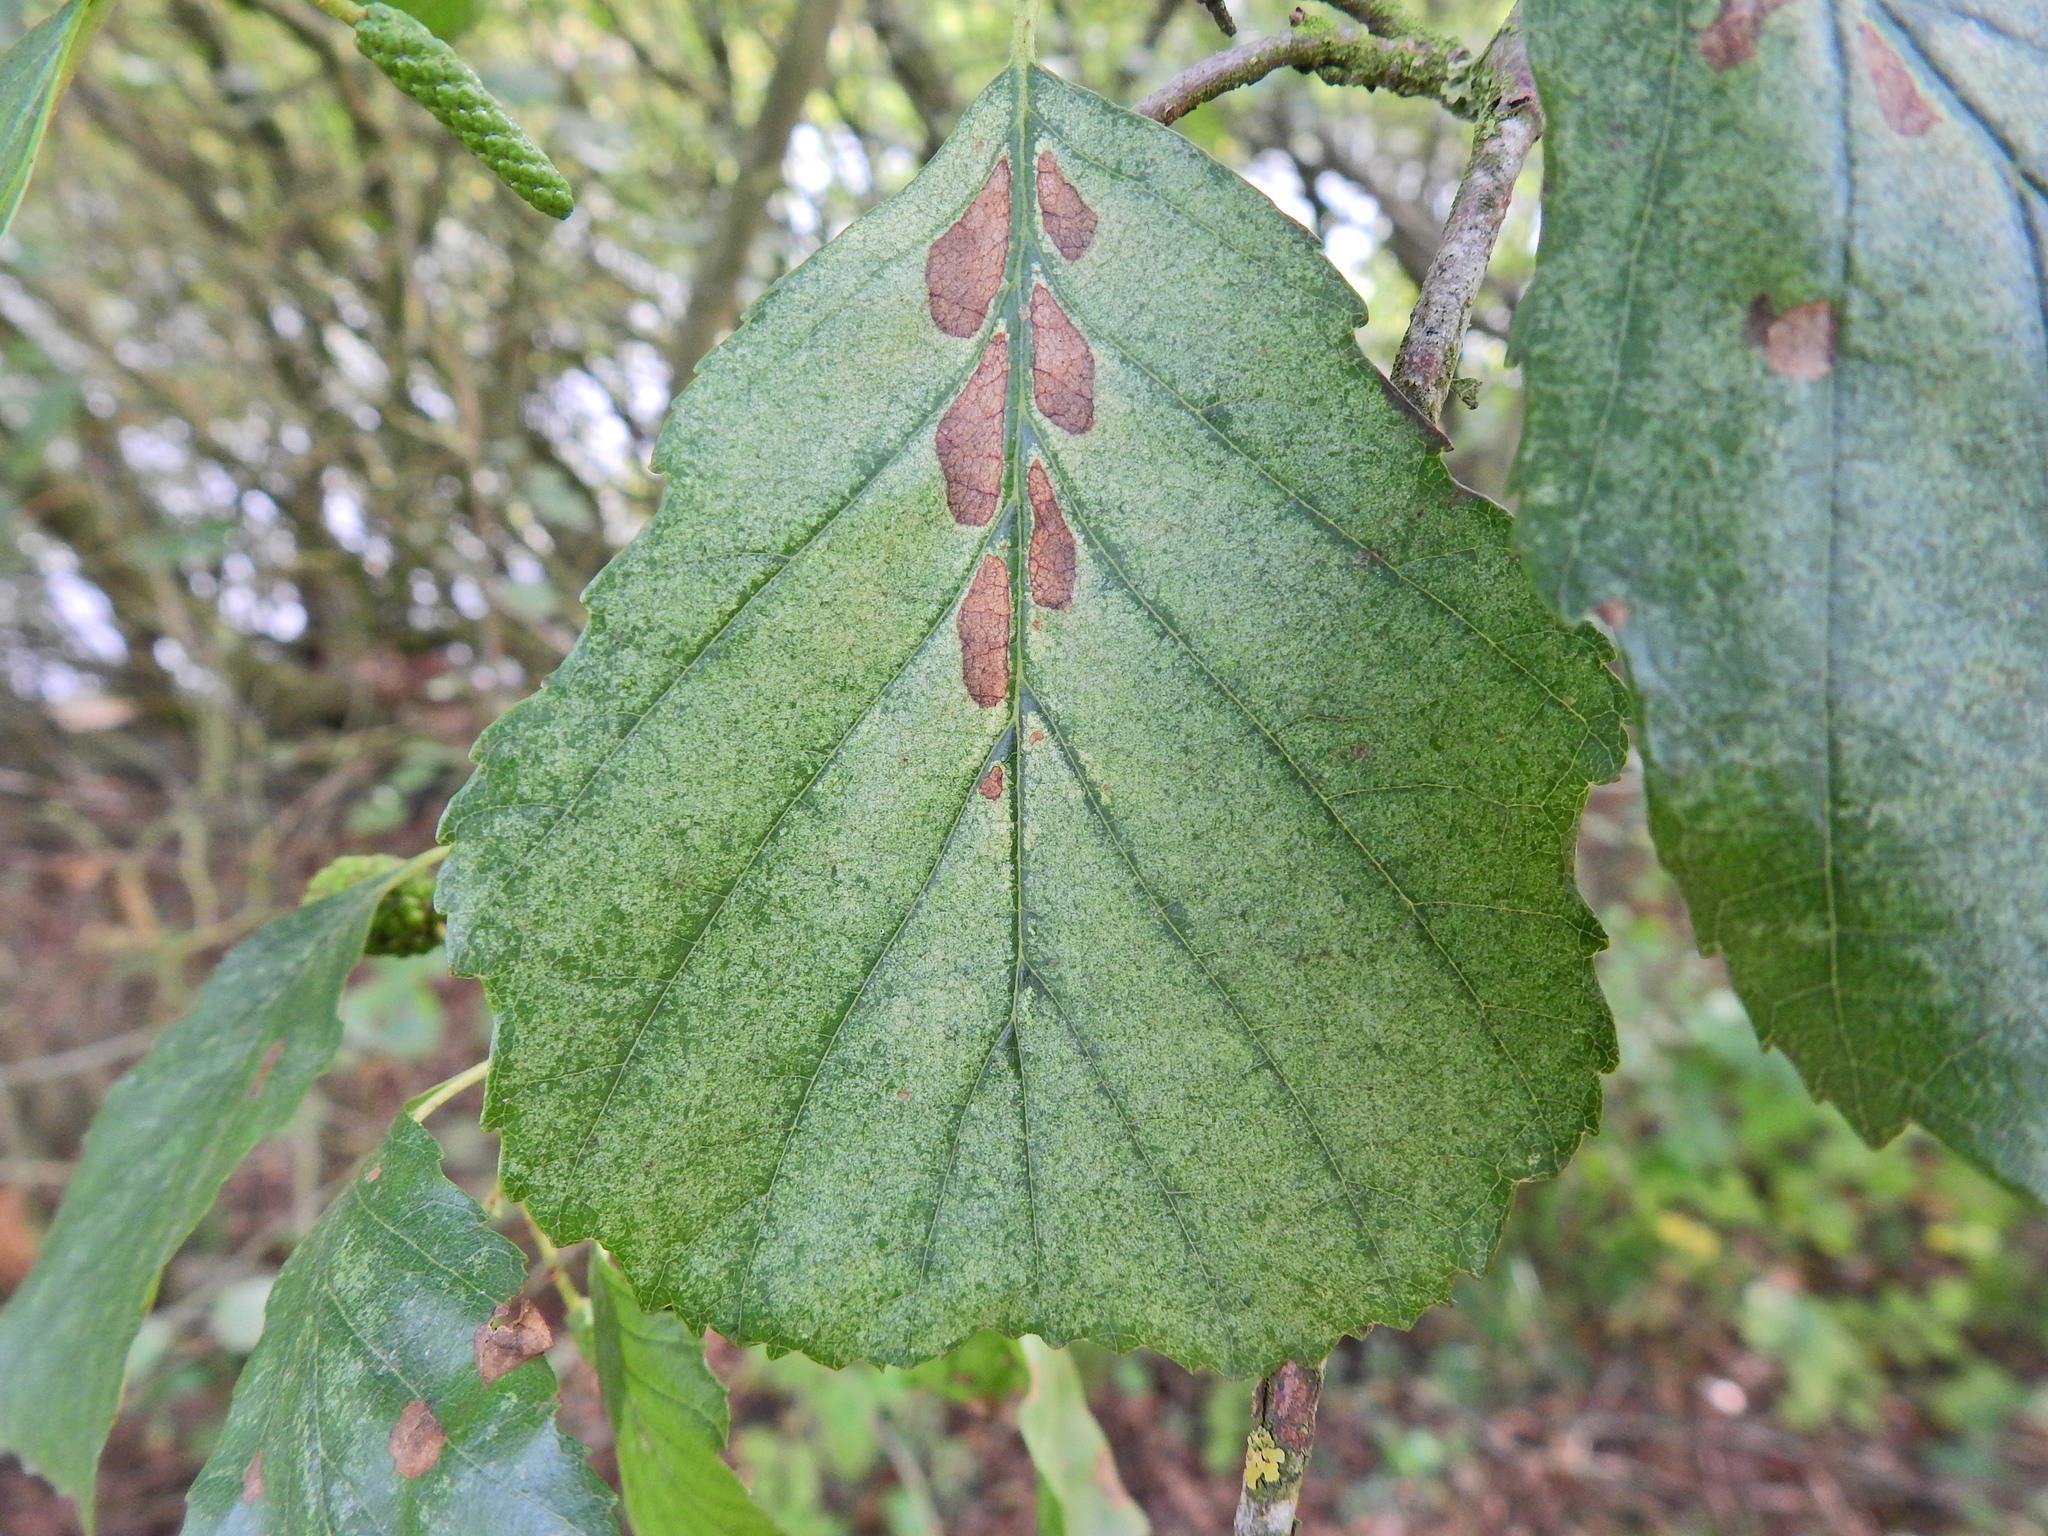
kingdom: Plantae
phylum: Tracheophyta
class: Magnoliopsida
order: Fagales
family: Betulaceae
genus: Alnus
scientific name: Alnus glutinosa
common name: Black alder
